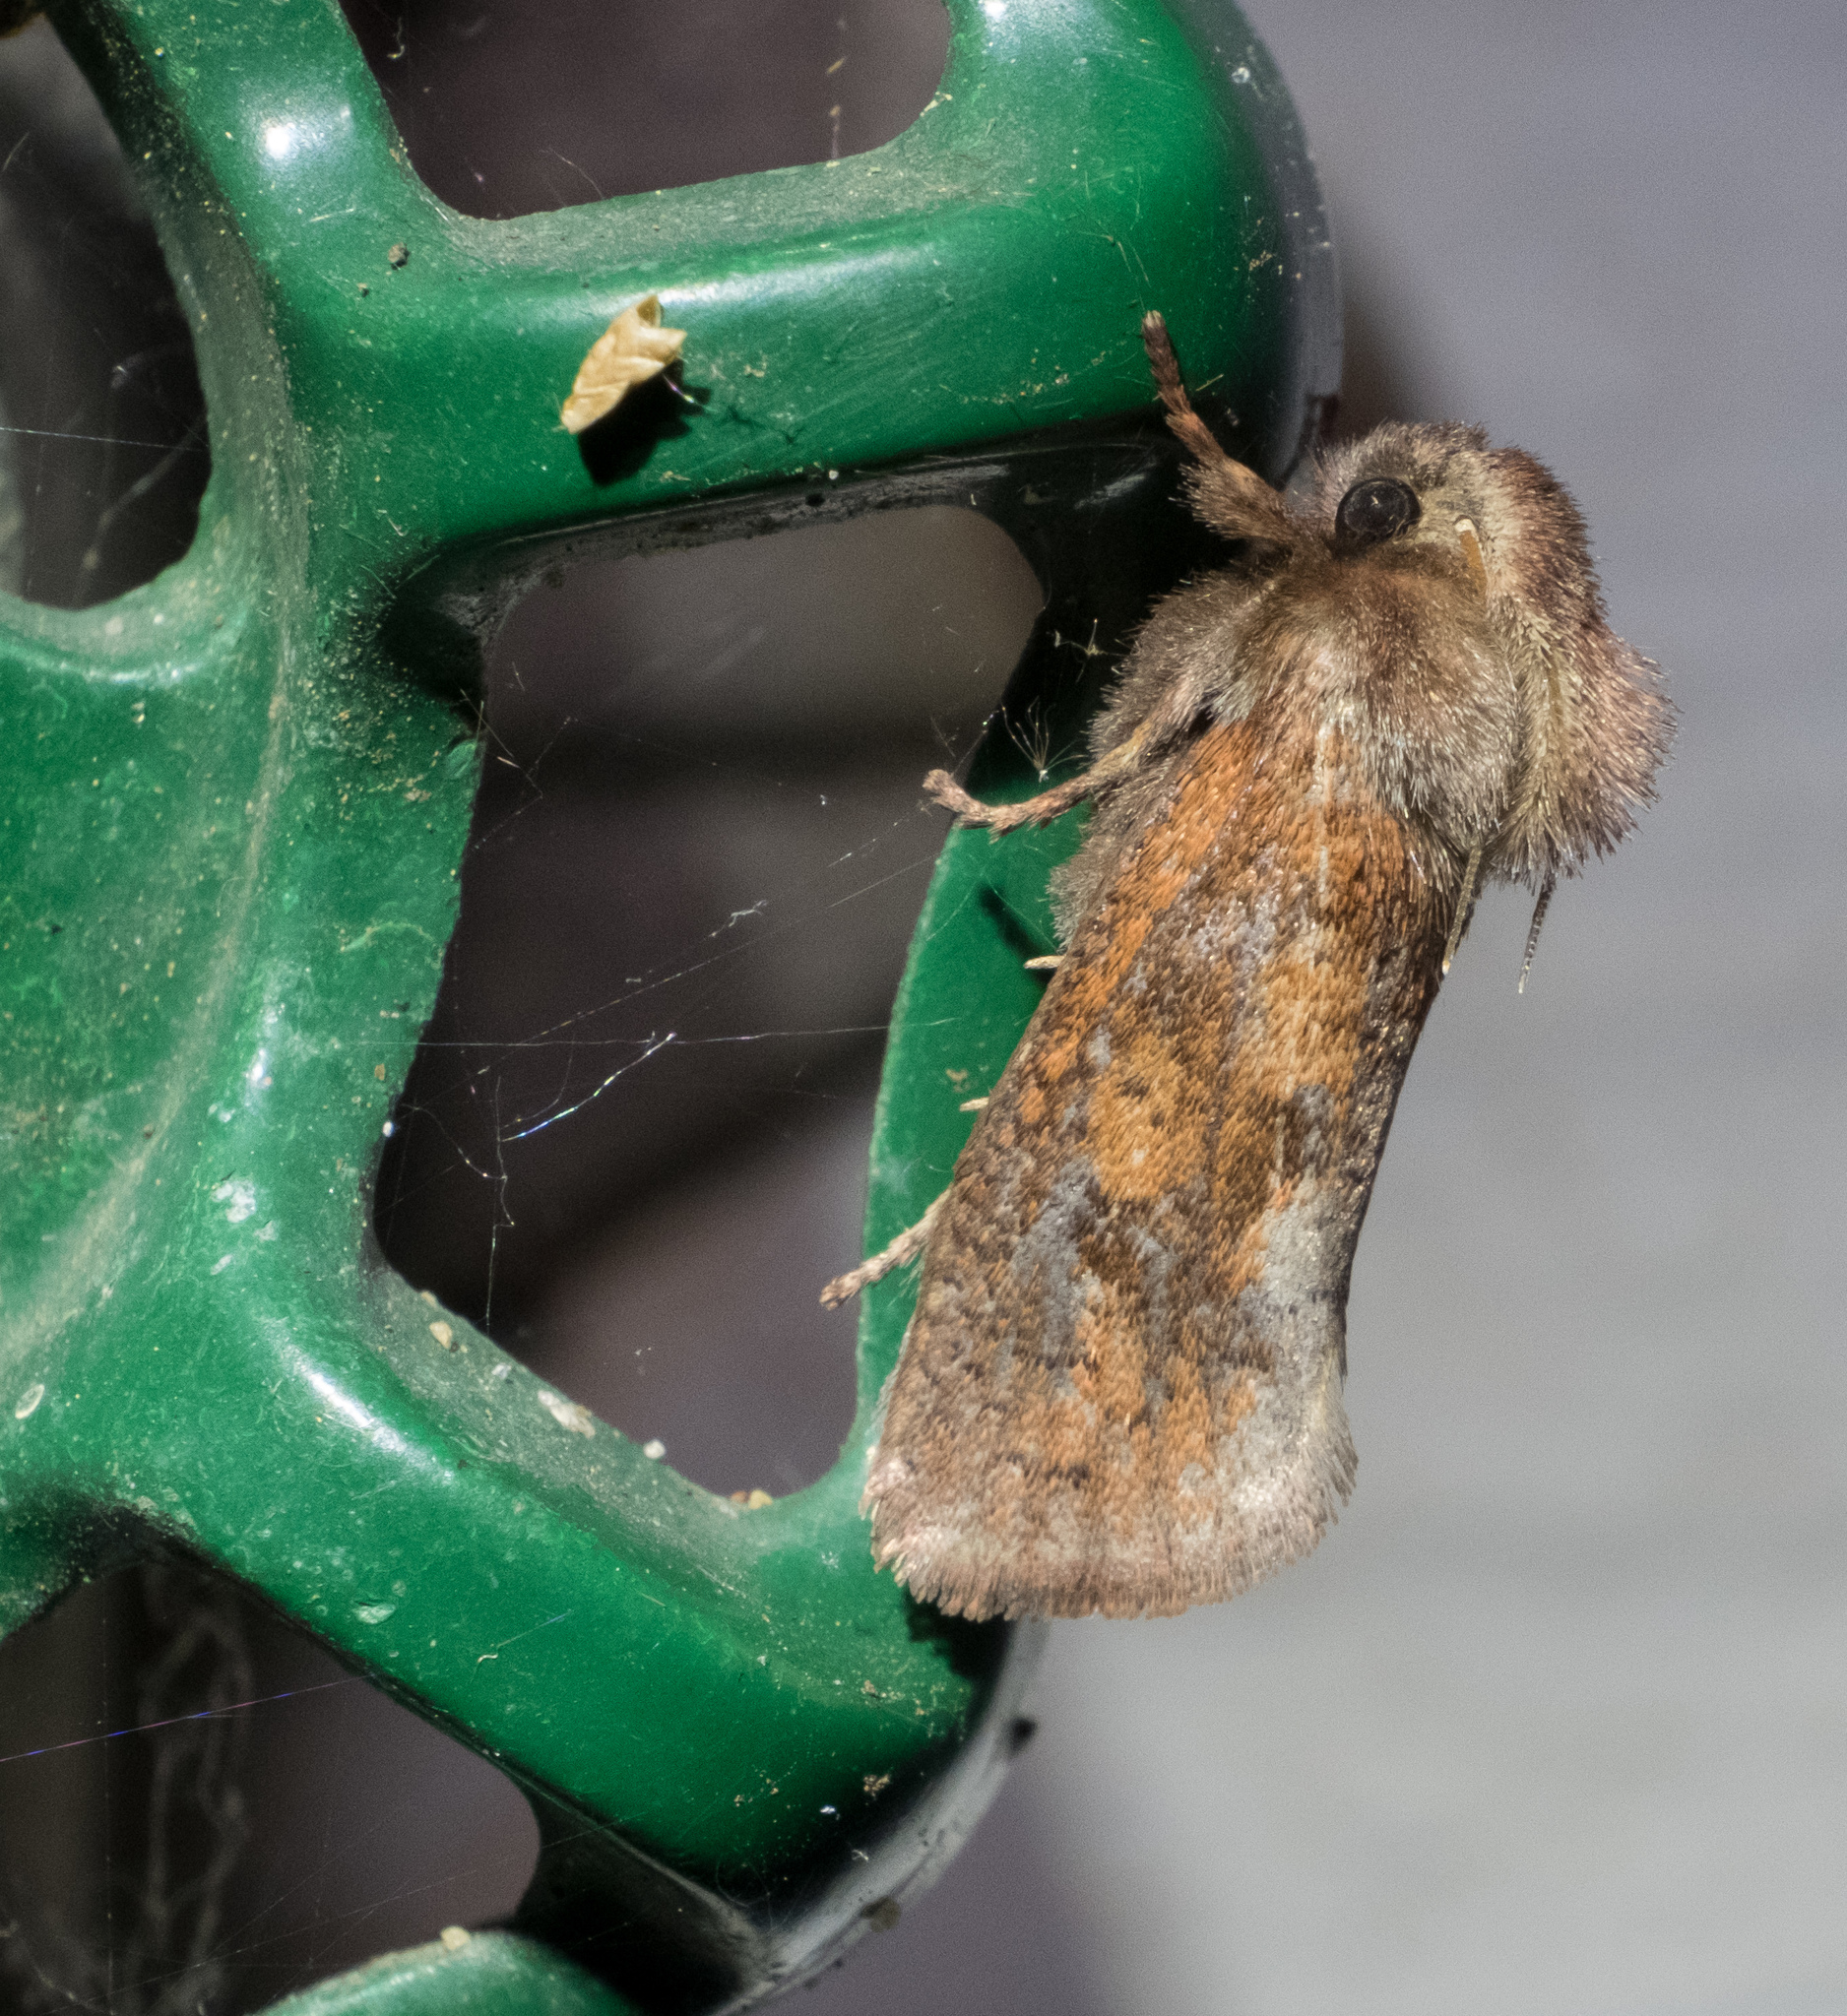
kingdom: Animalia
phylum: Arthropoda
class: Insecta
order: Lepidoptera
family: Tineidae
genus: Acrolophus
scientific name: Acrolophus plumifrontella
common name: Eastern grass tubeworm moth
